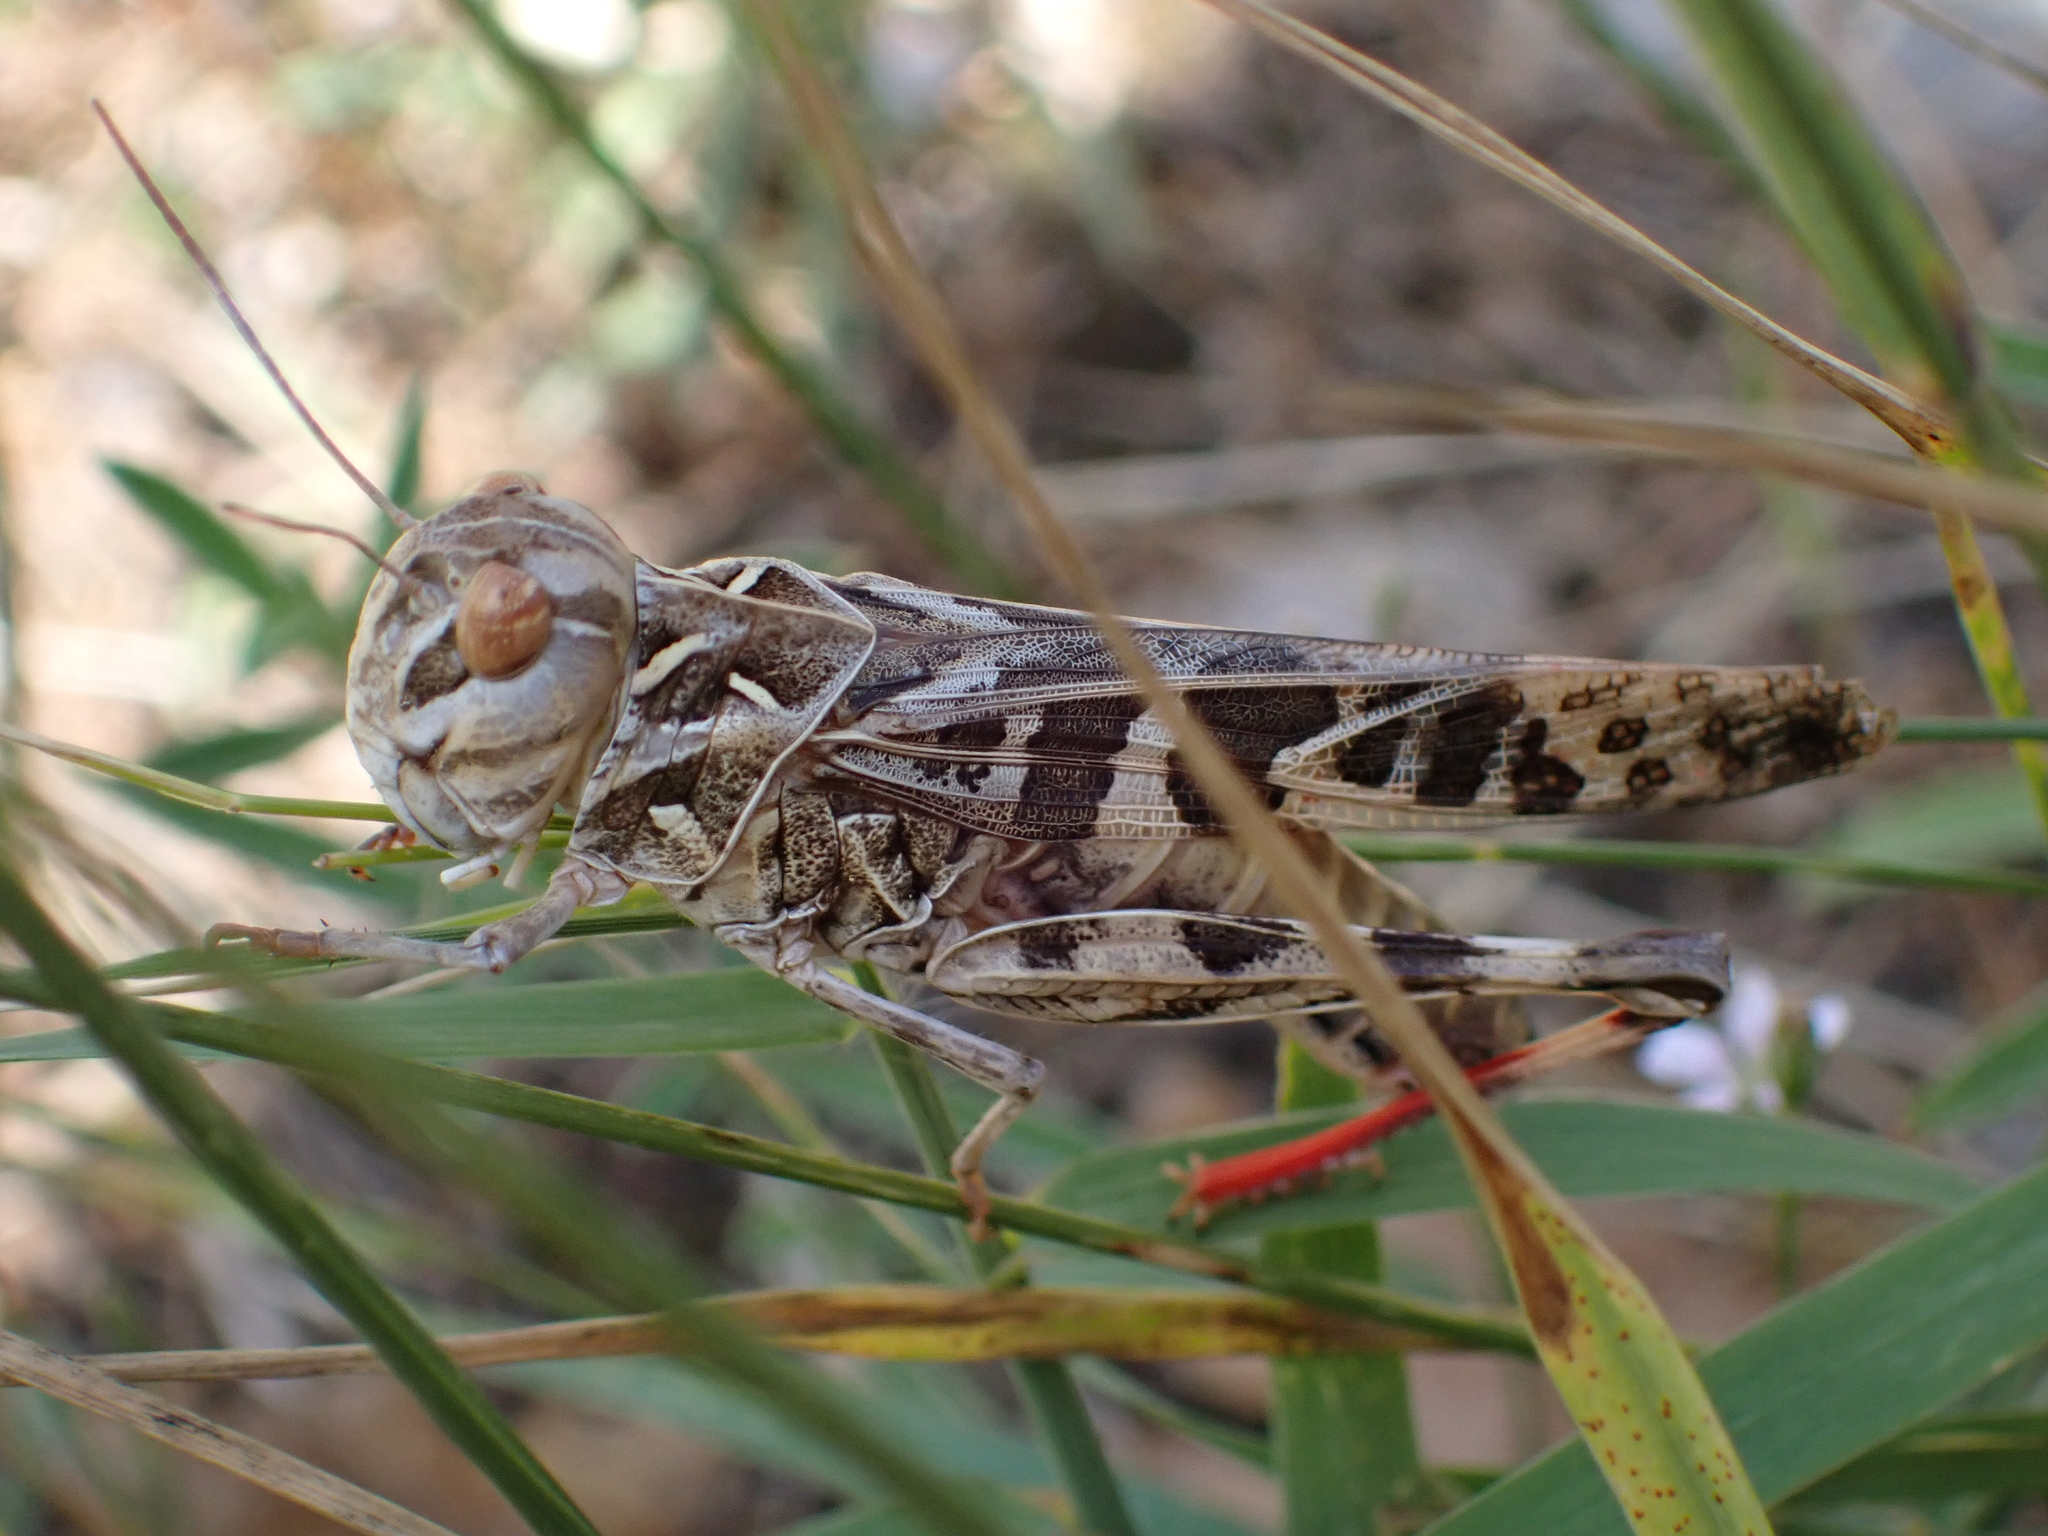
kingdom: Animalia
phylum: Arthropoda
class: Insecta
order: Orthoptera
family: Acrididae
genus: Oedaleus
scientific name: Oedaleus decorus
